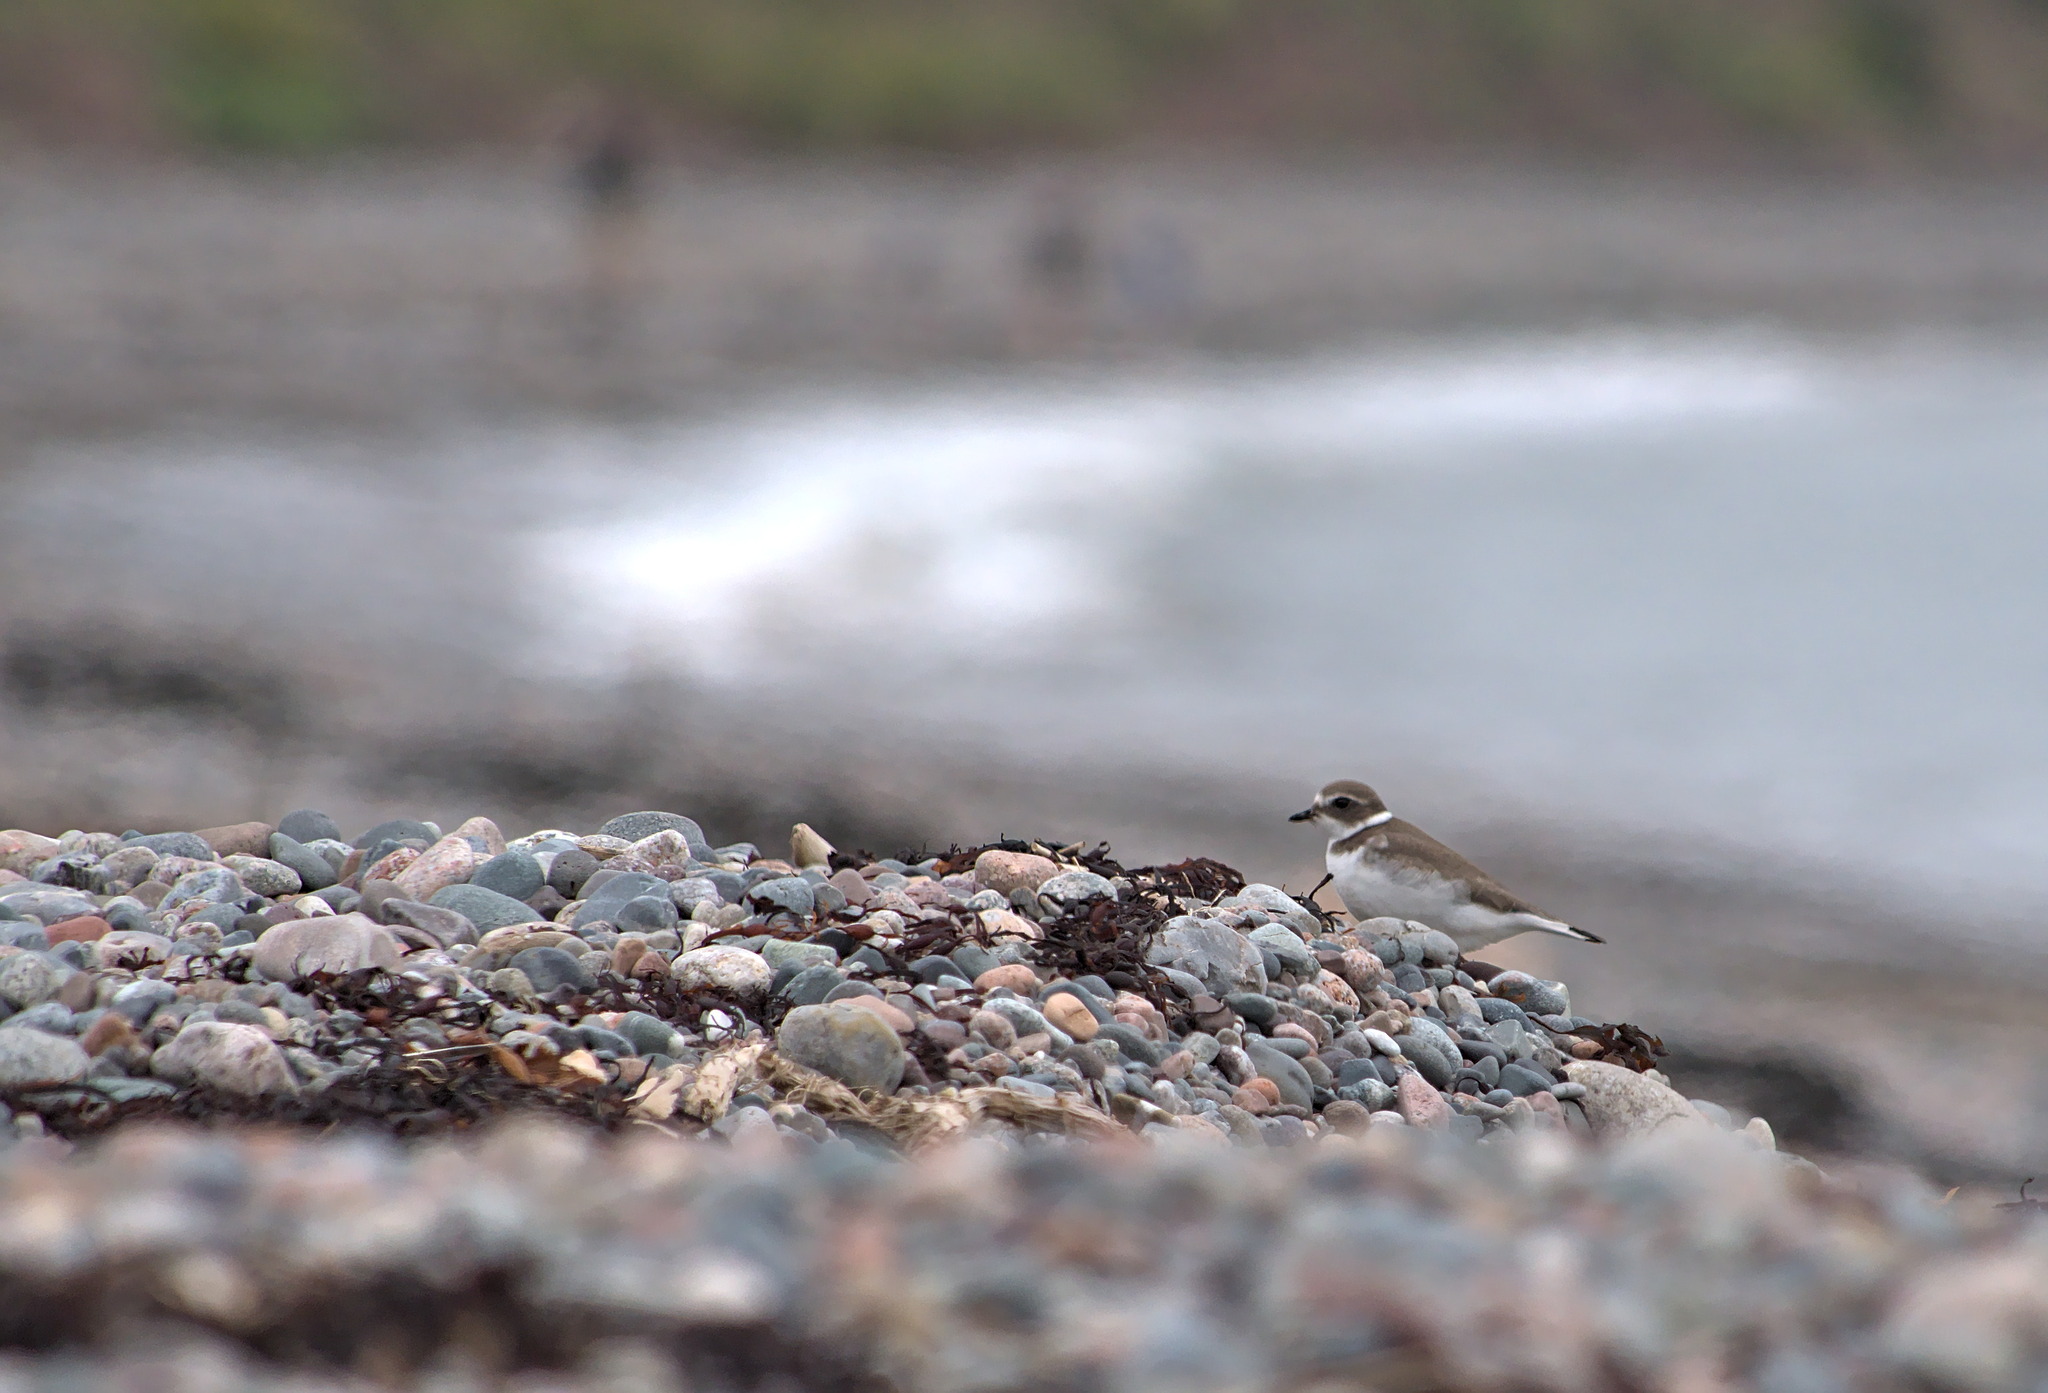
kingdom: Animalia
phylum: Chordata
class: Aves
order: Charadriiformes
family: Charadriidae
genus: Charadrius
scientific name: Charadrius semipalmatus
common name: Semipalmated plover
